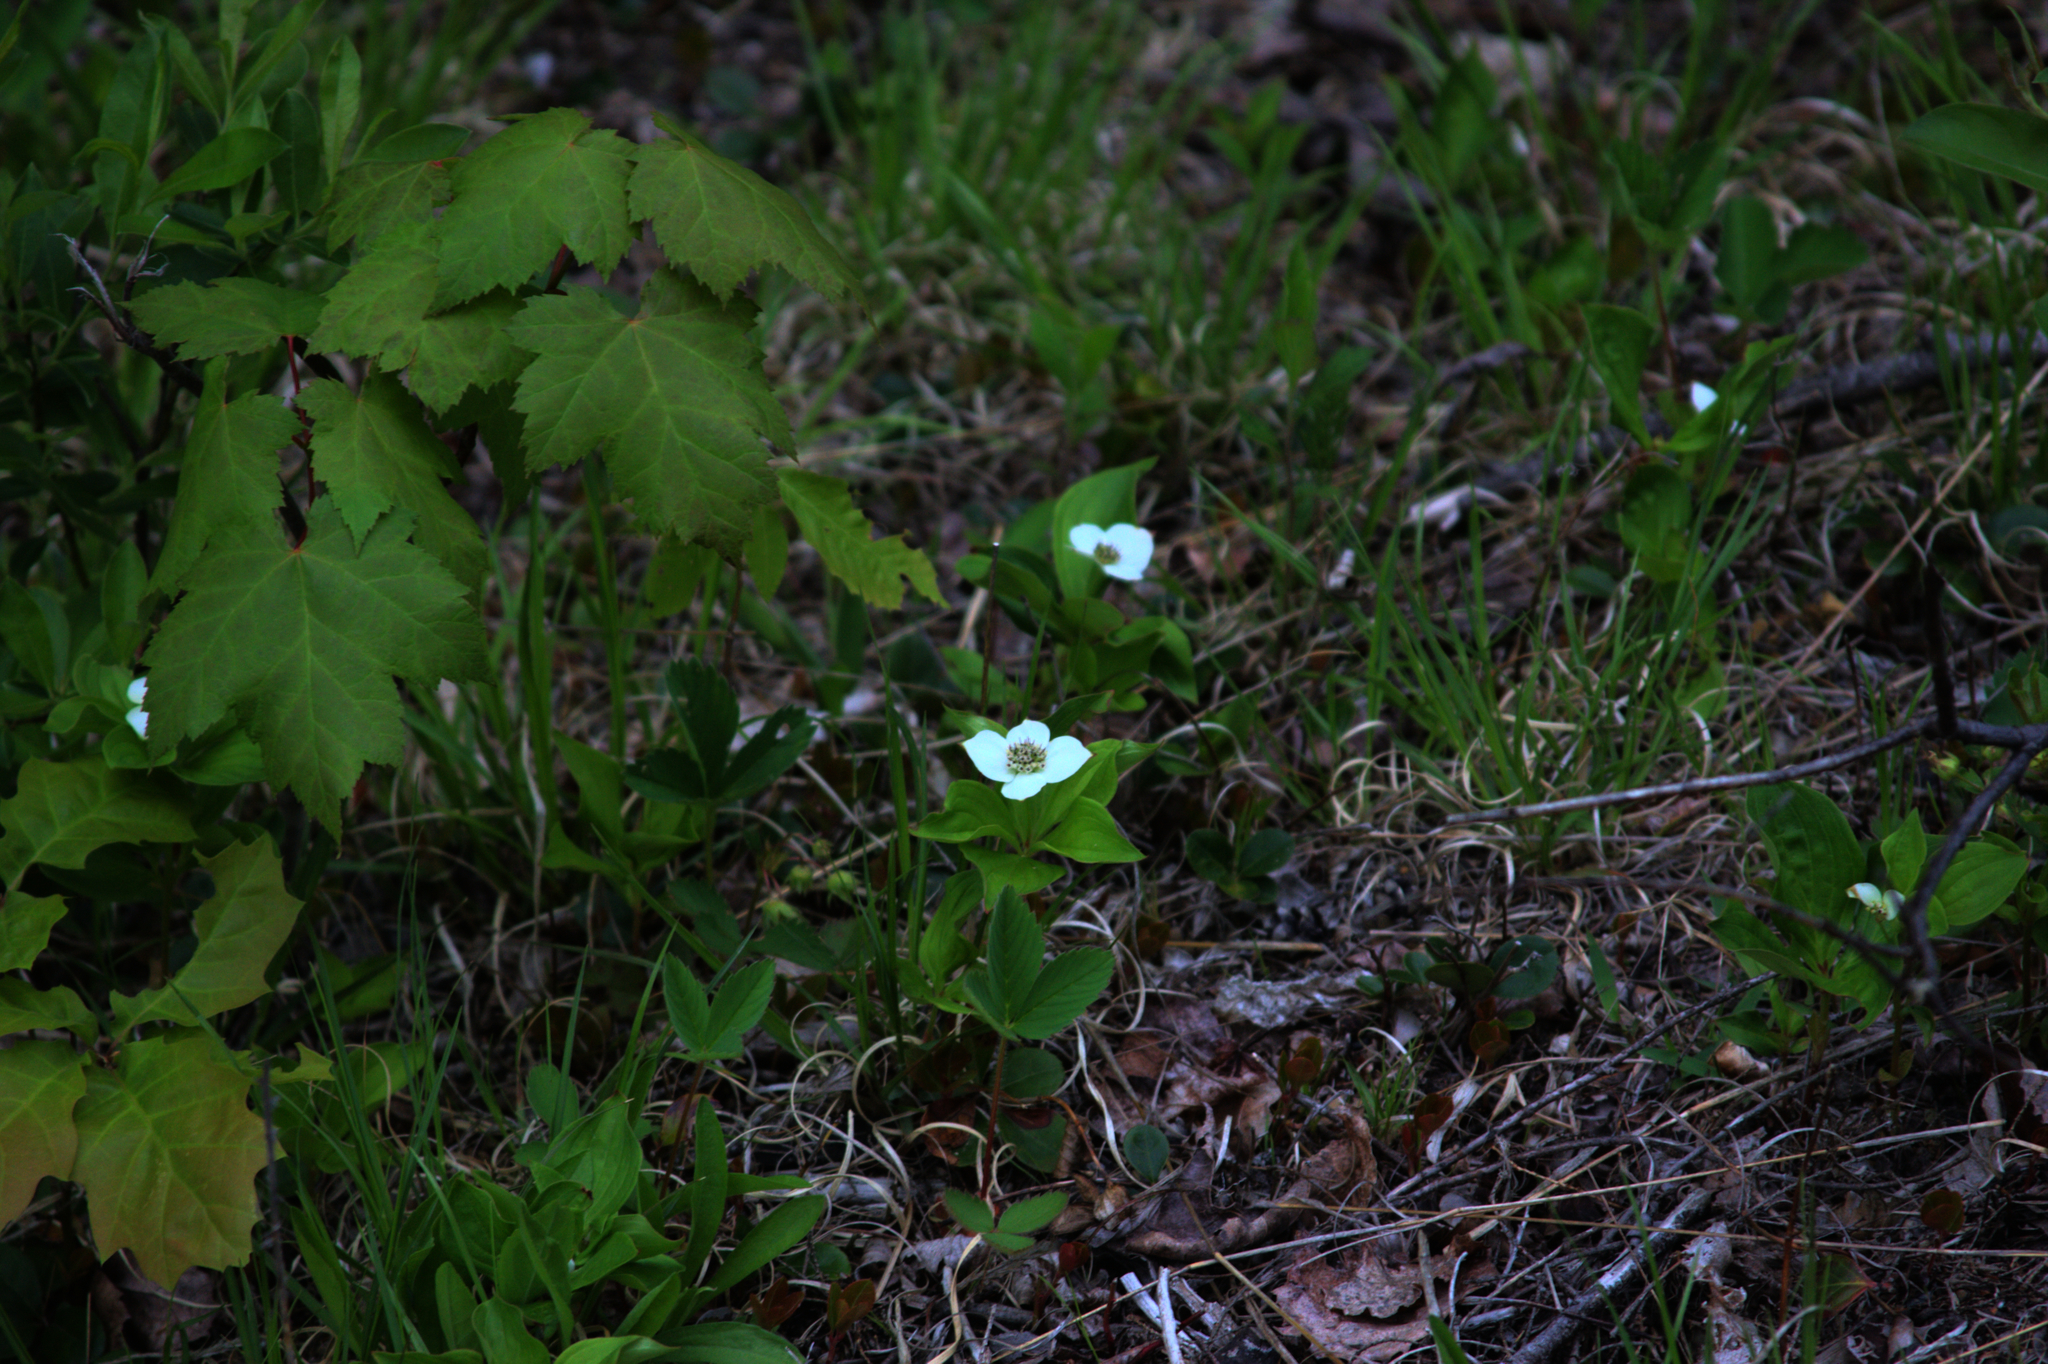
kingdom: Plantae
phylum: Tracheophyta
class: Magnoliopsida
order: Cornales
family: Cornaceae
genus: Cornus
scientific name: Cornus canadensis
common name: Creeping dogwood
